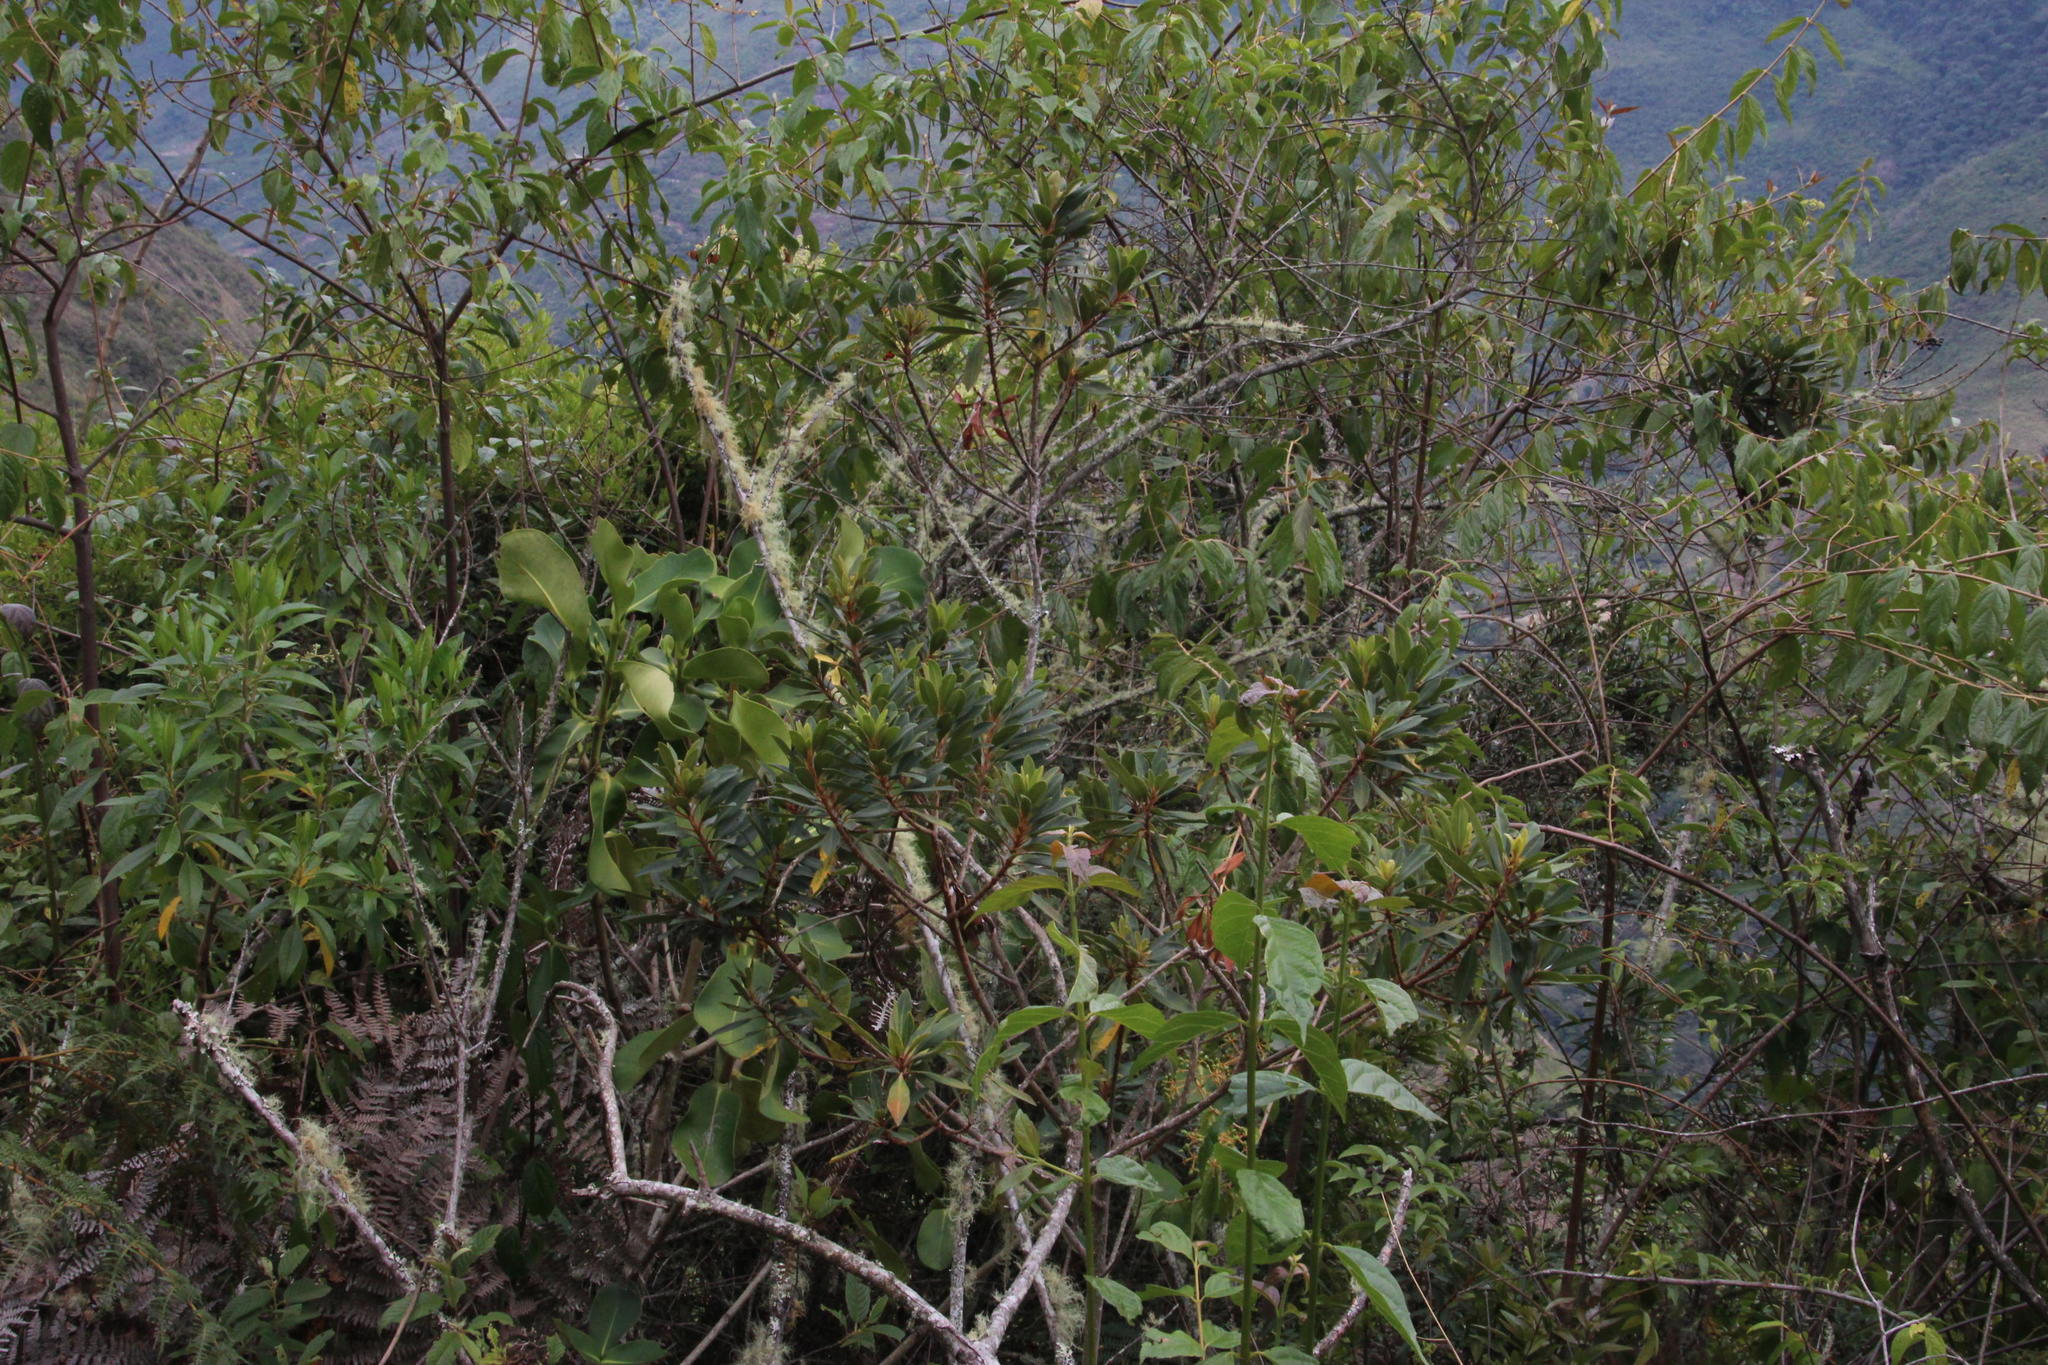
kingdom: Plantae
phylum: Tracheophyta
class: Magnoliopsida
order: Ericales
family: Primulaceae
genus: Myrsine
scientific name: Myrsine coriacea
